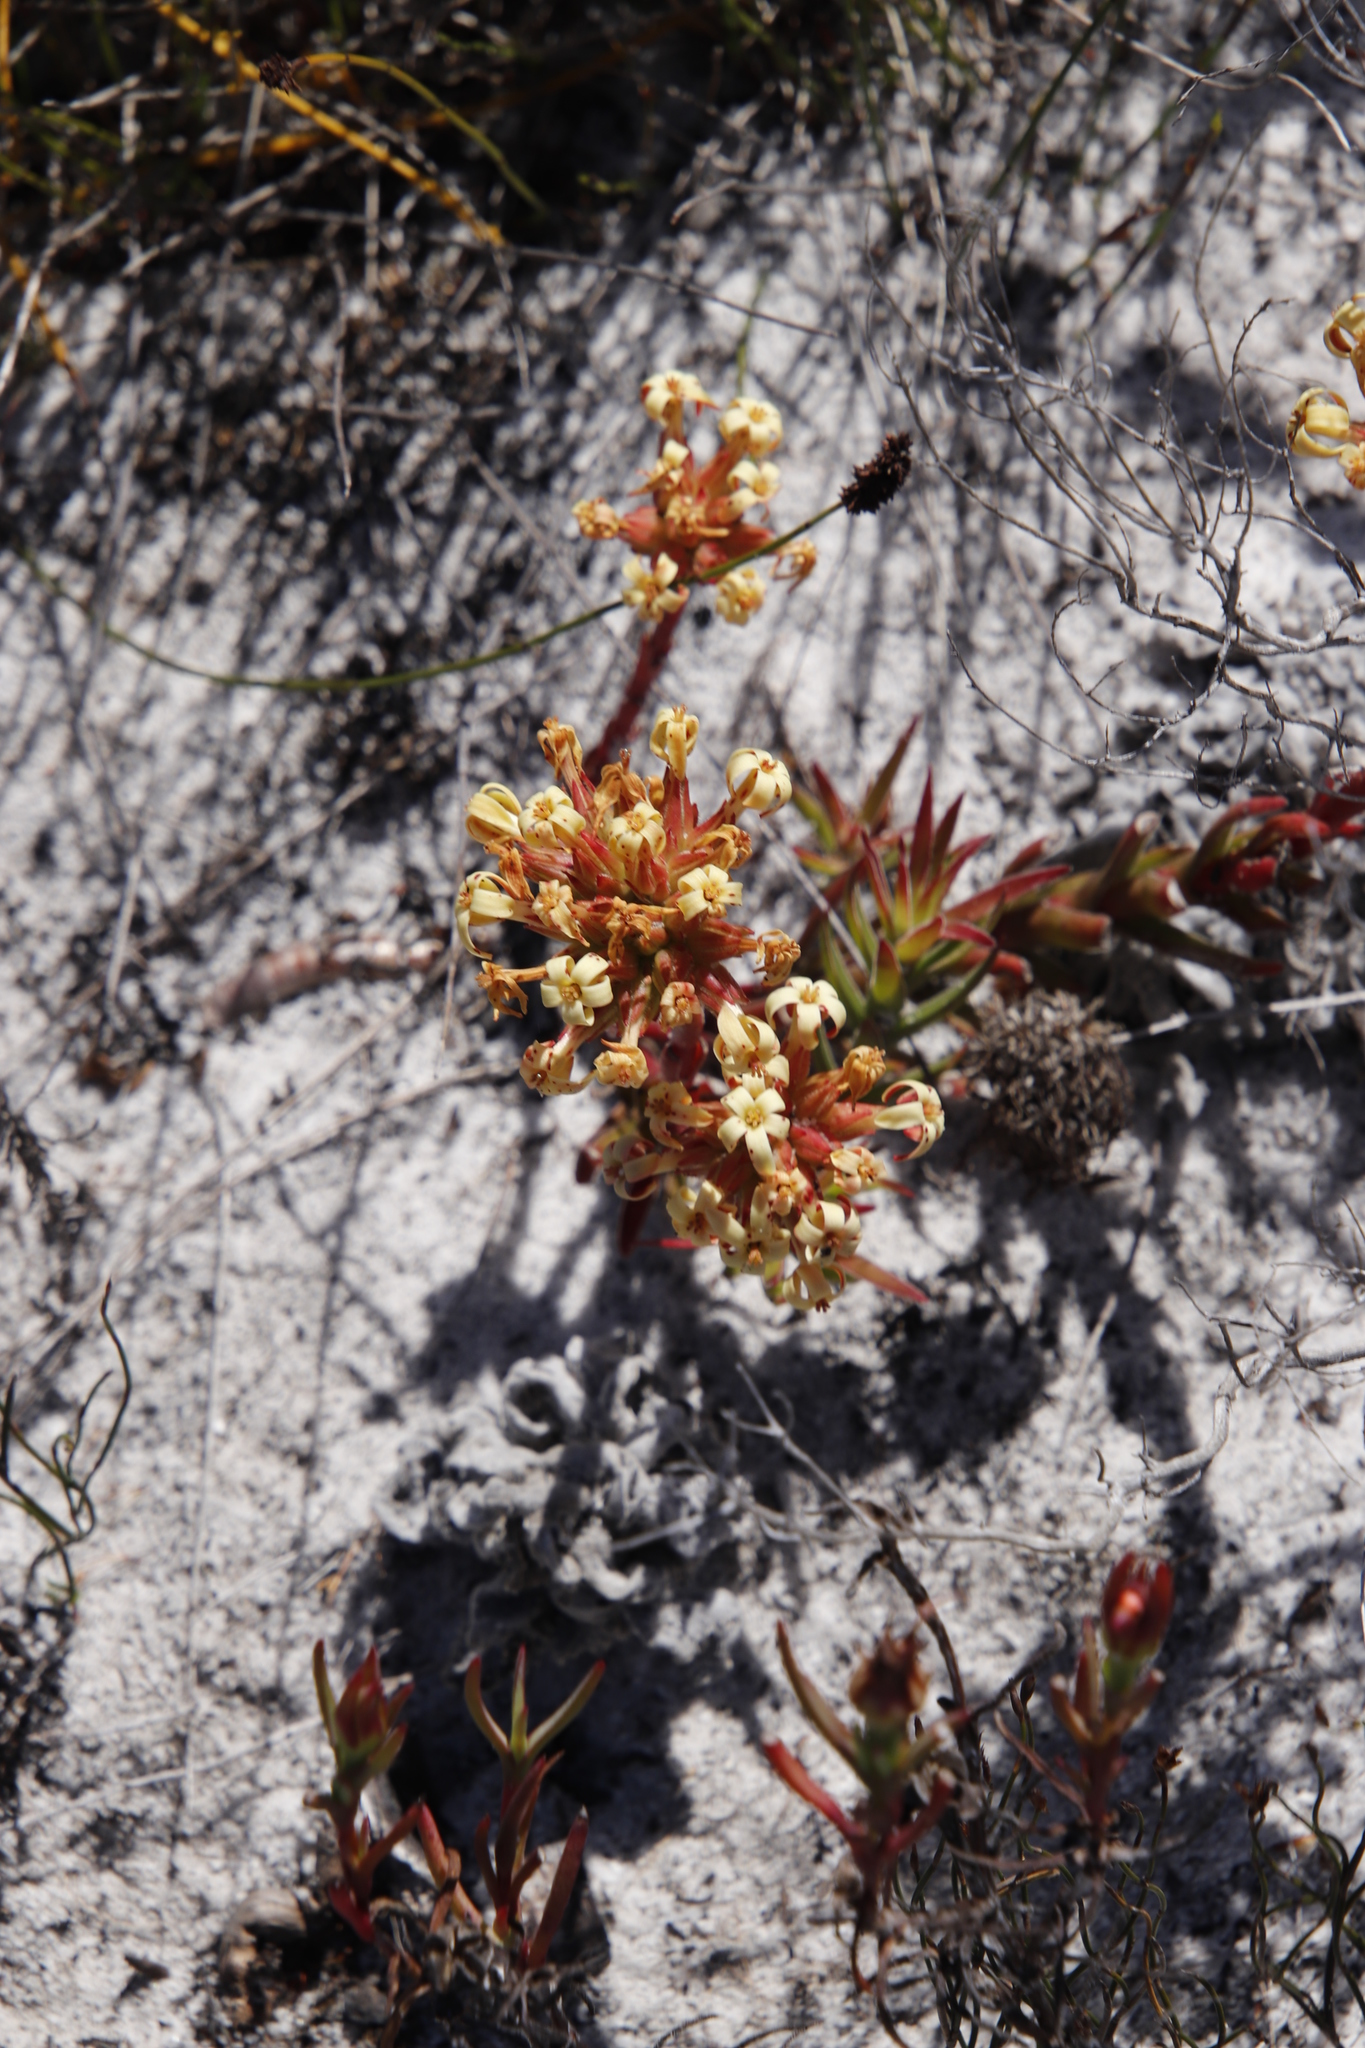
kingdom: Plantae
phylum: Tracheophyta
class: Magnoliopsida
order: Saxifragales
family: Crassulaceae
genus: Crassula
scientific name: Crassula fascicularis
